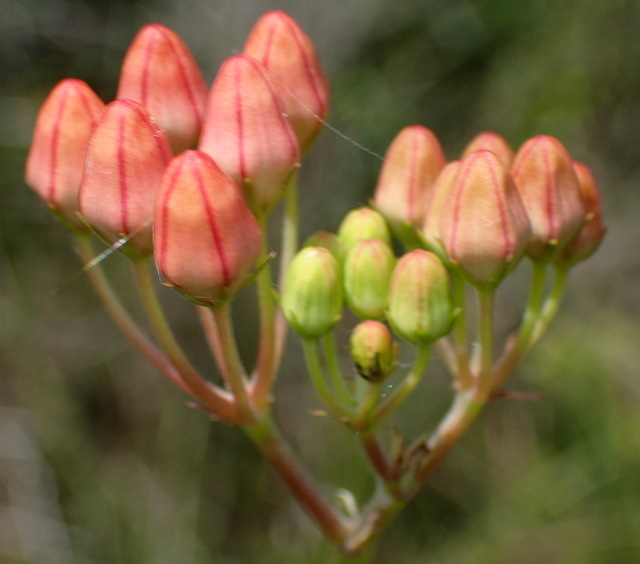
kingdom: Plantae
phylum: Tracheophyta
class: Magnoliopsida
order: Gentianales
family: Apocynaceae
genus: Asclepias
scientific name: Asclepias lanceolata
